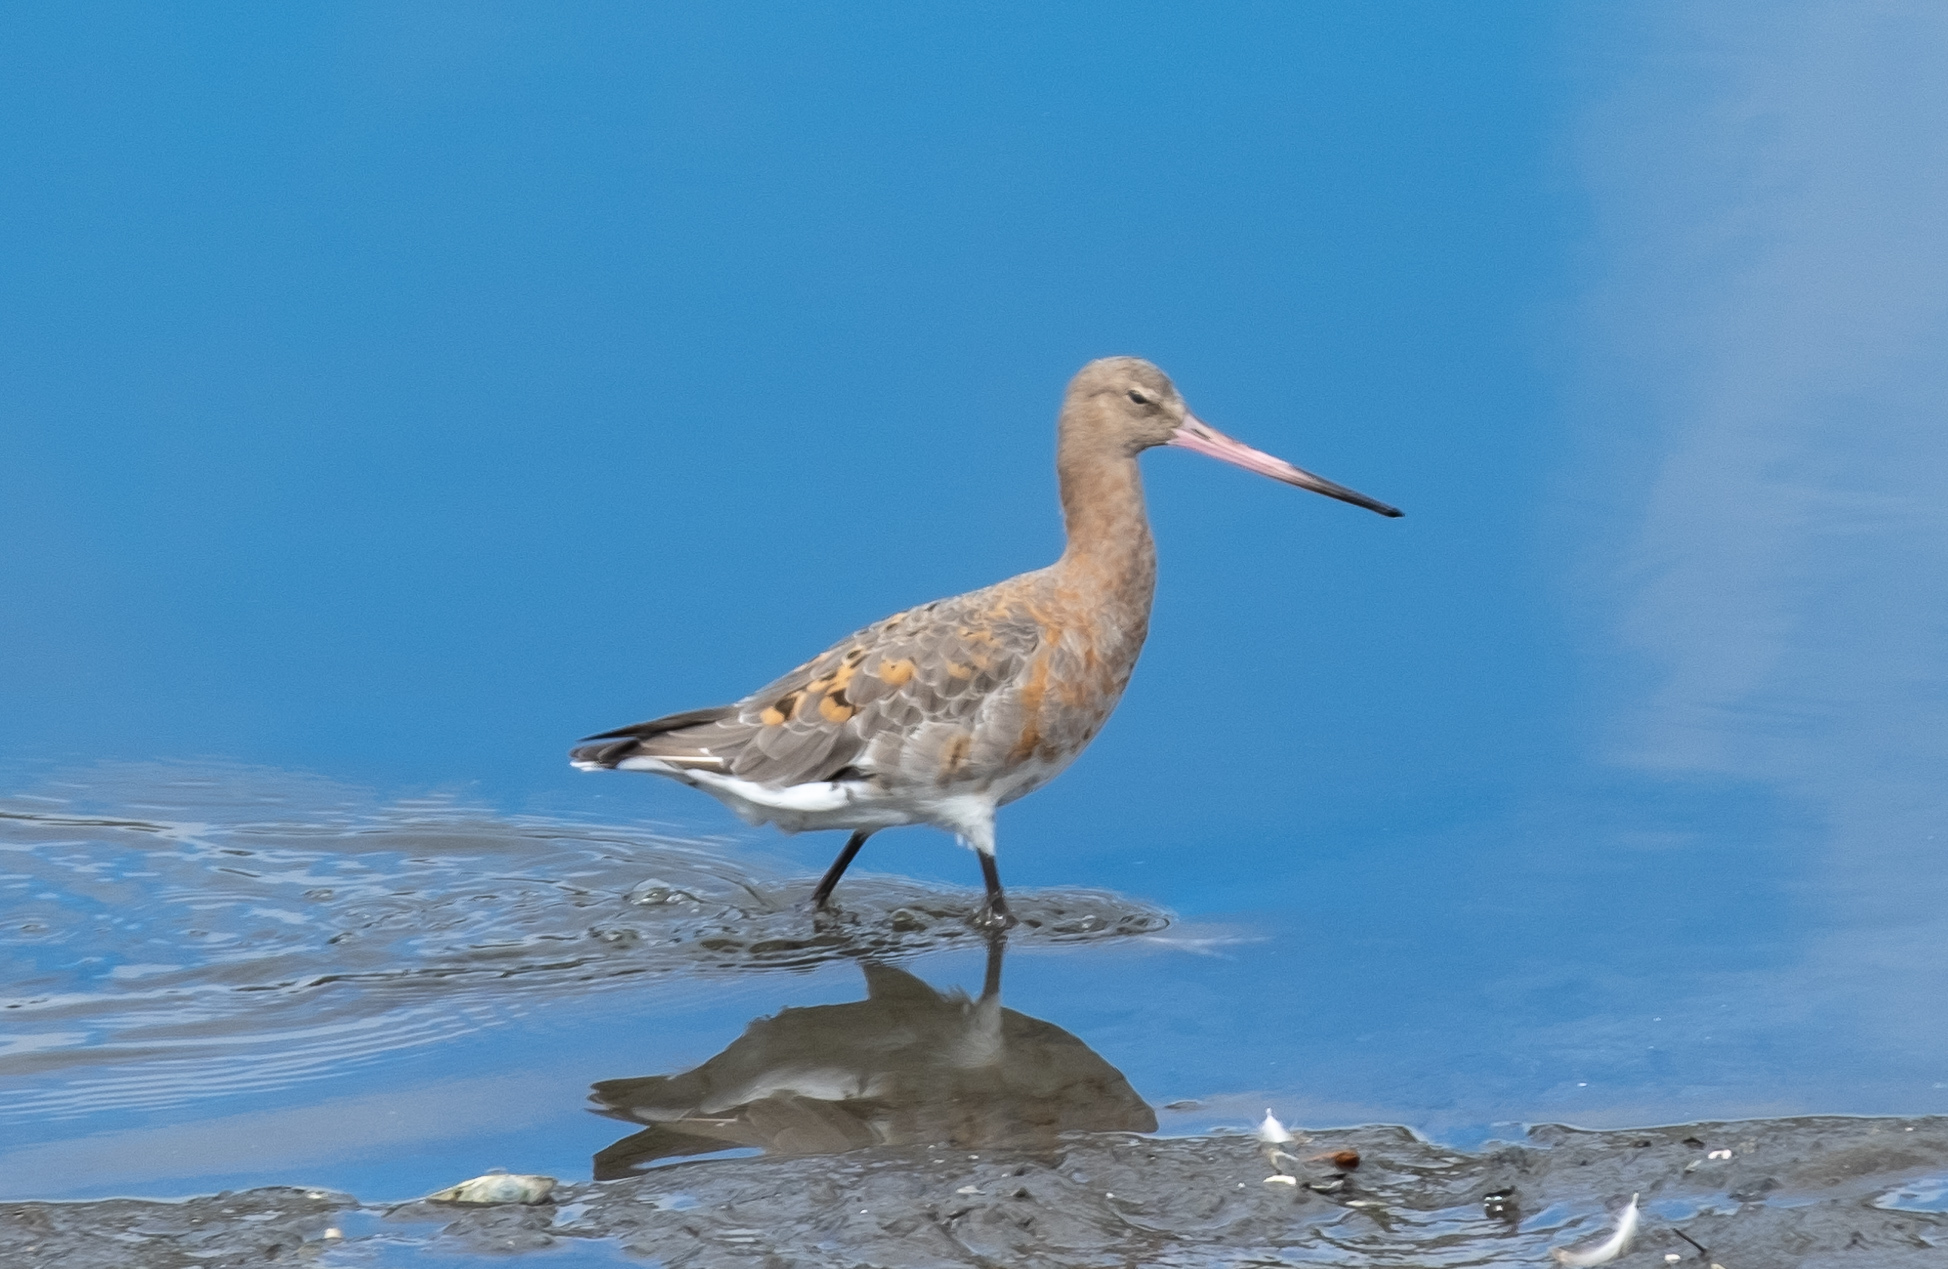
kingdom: Animalia
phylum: Chordata
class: Aves
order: Charadriiformes
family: Scolopacidae
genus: Limosa
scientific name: Limosa limosa
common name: Black-tailed godwit
